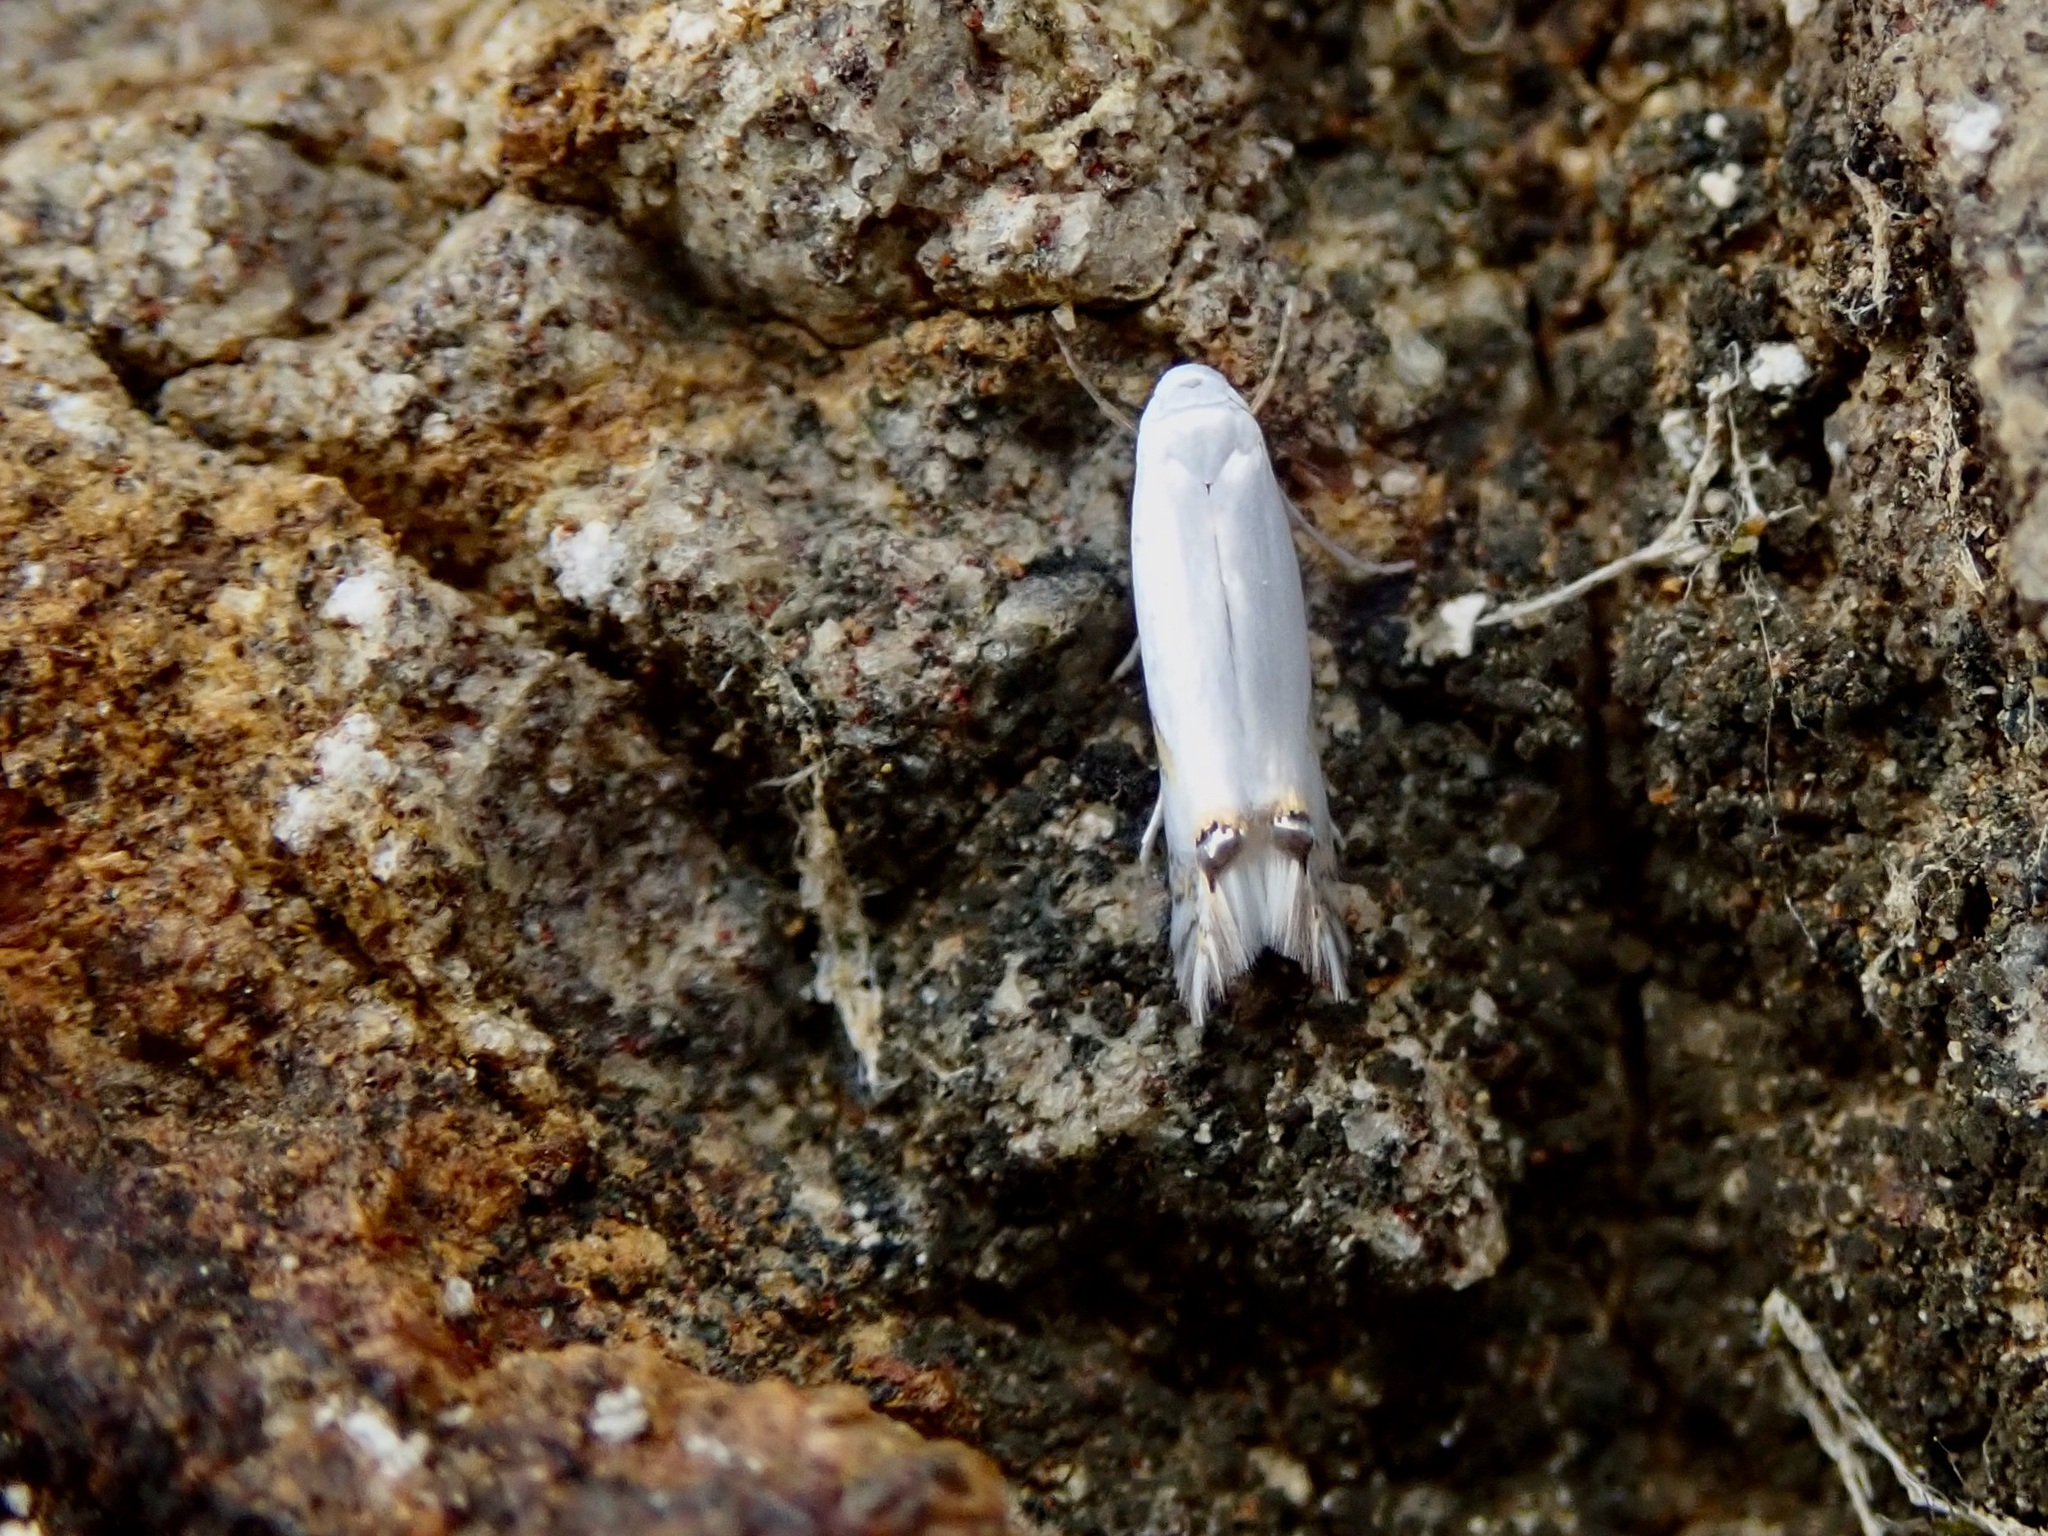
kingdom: Animalia
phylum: Arthropoda
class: Insecta
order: Lepidoptera
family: Lyonetiidae
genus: Leucoptera
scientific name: Leucoptera spartifoliella
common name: Scotch broom twig miner
